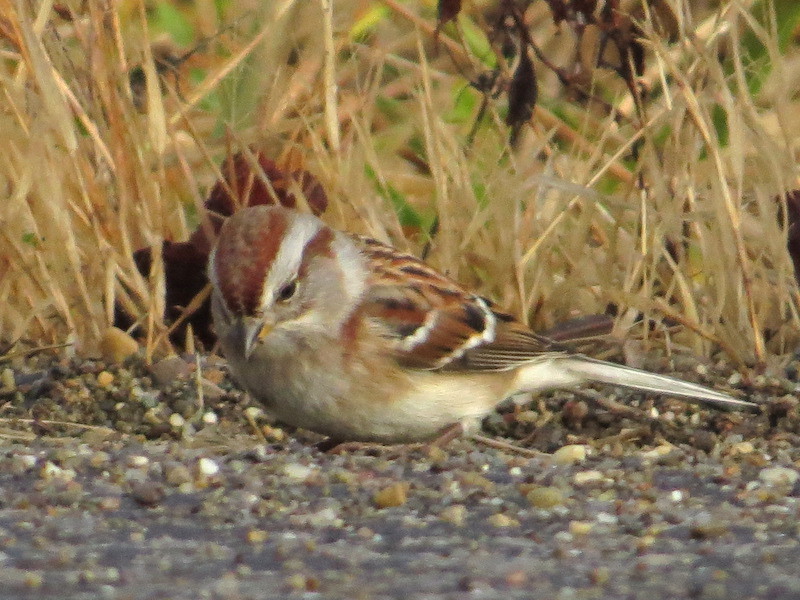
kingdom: Animalia
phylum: Chordata
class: Aves
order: Passeriformes
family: Passerellidae
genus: Spizelloides
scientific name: Spizelloides arborea
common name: American tree sparrow
